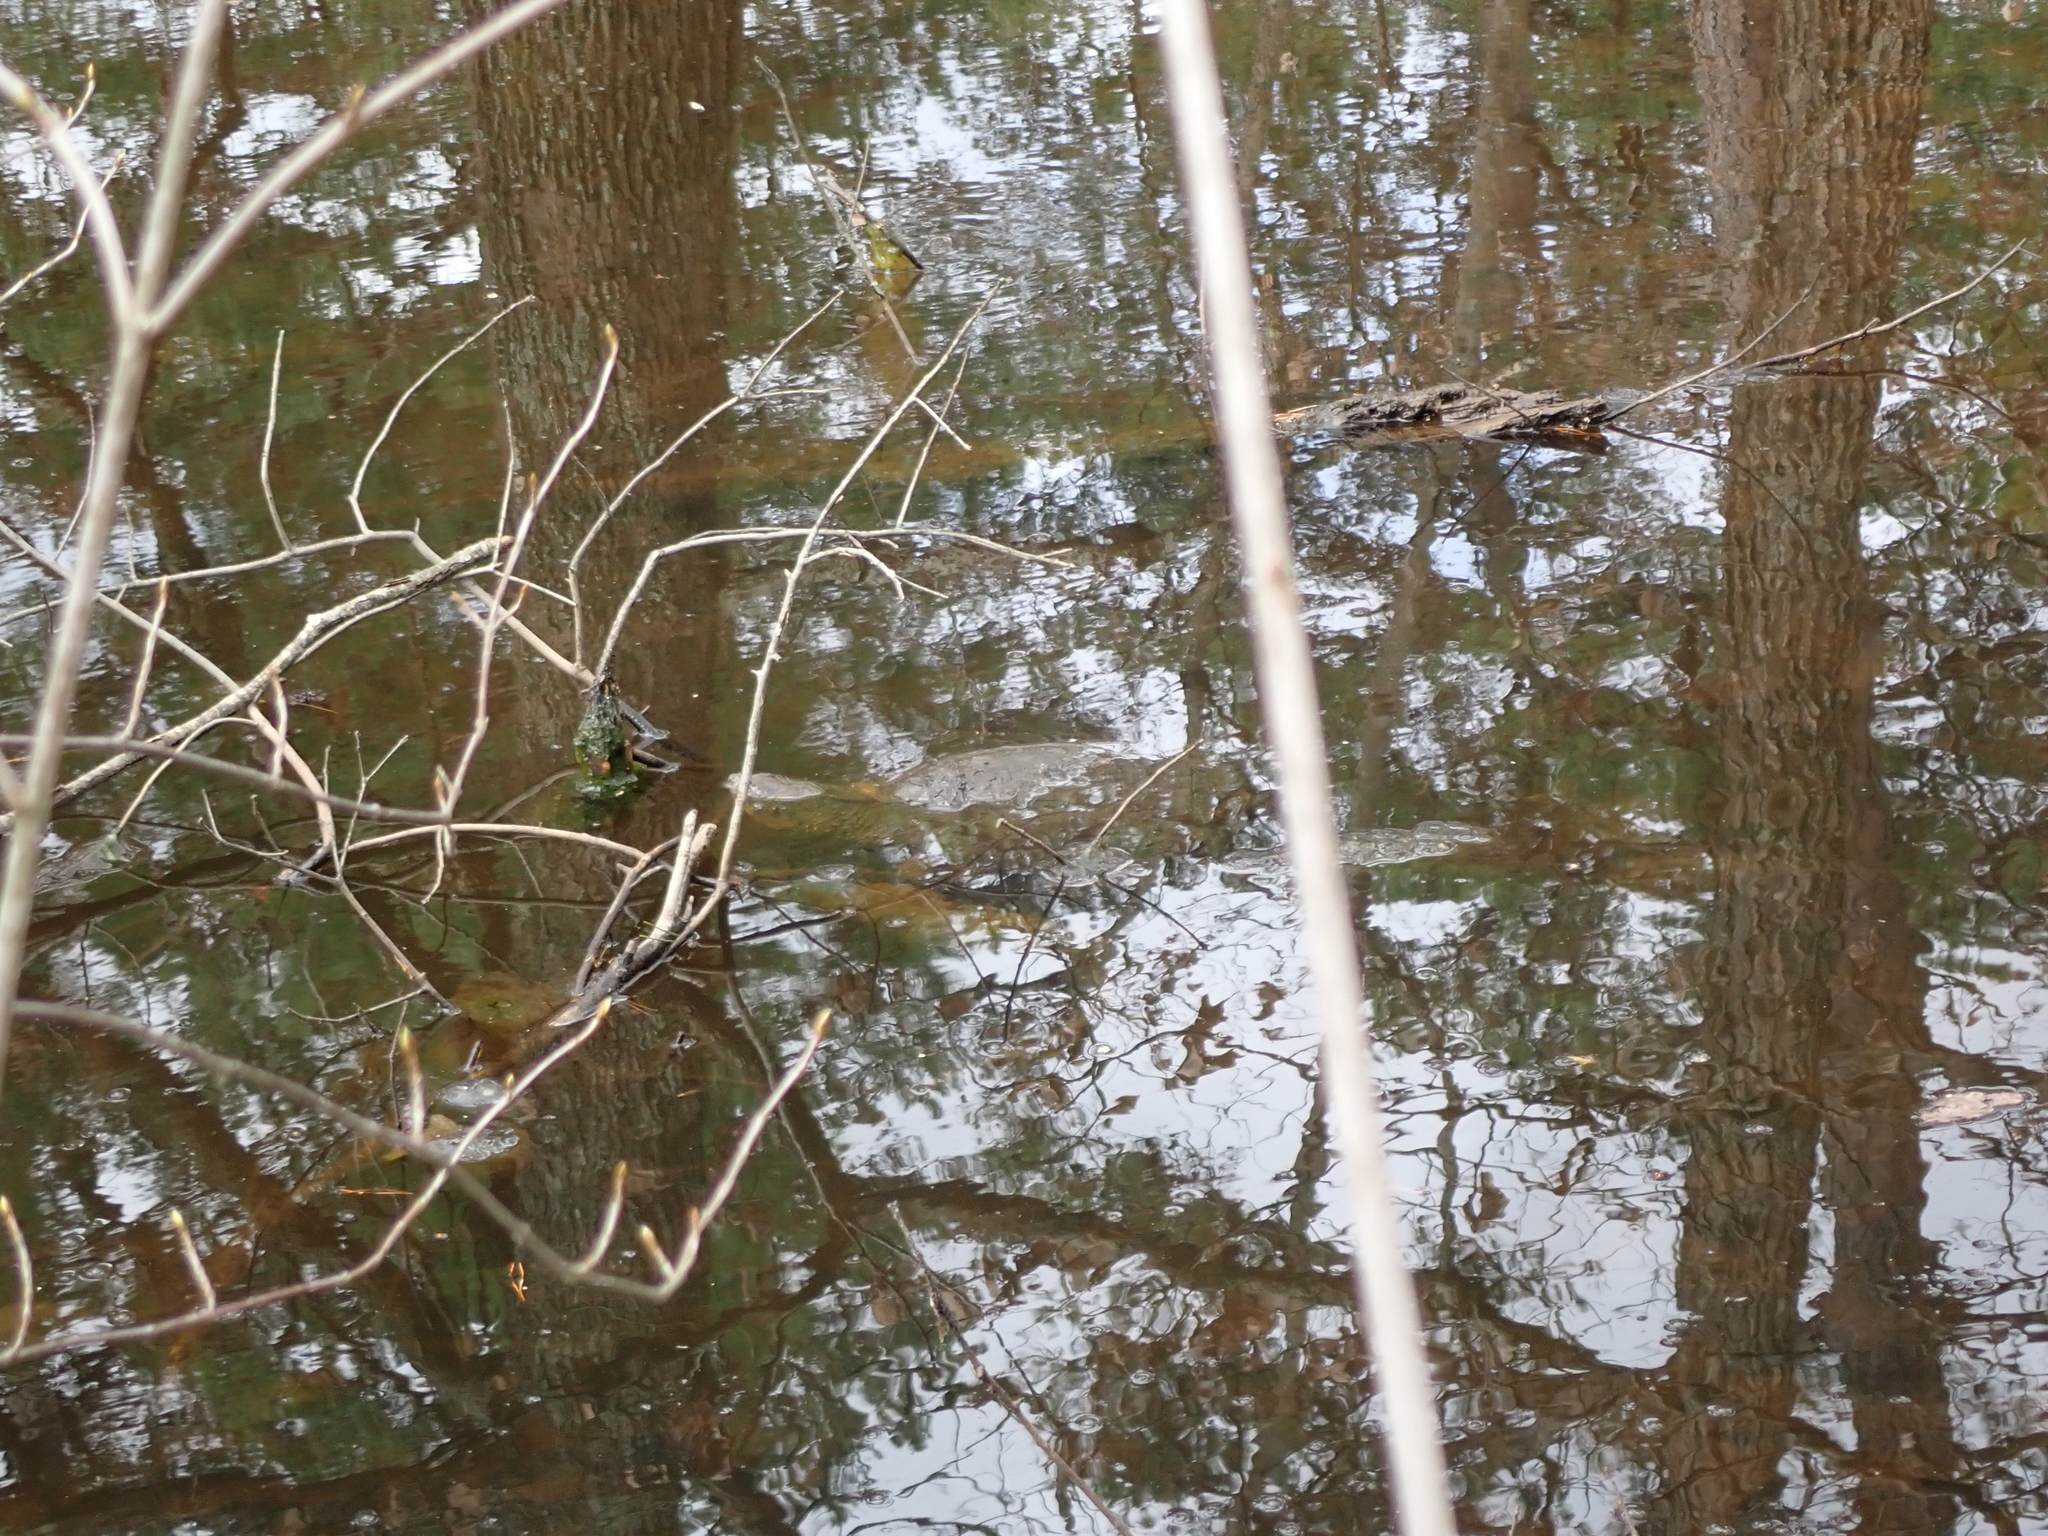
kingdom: Animalia
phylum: Chordata
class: Testudines
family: Chelydridae
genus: Chelydra
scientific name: Chelydra serpentina
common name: Common snapping turtle
